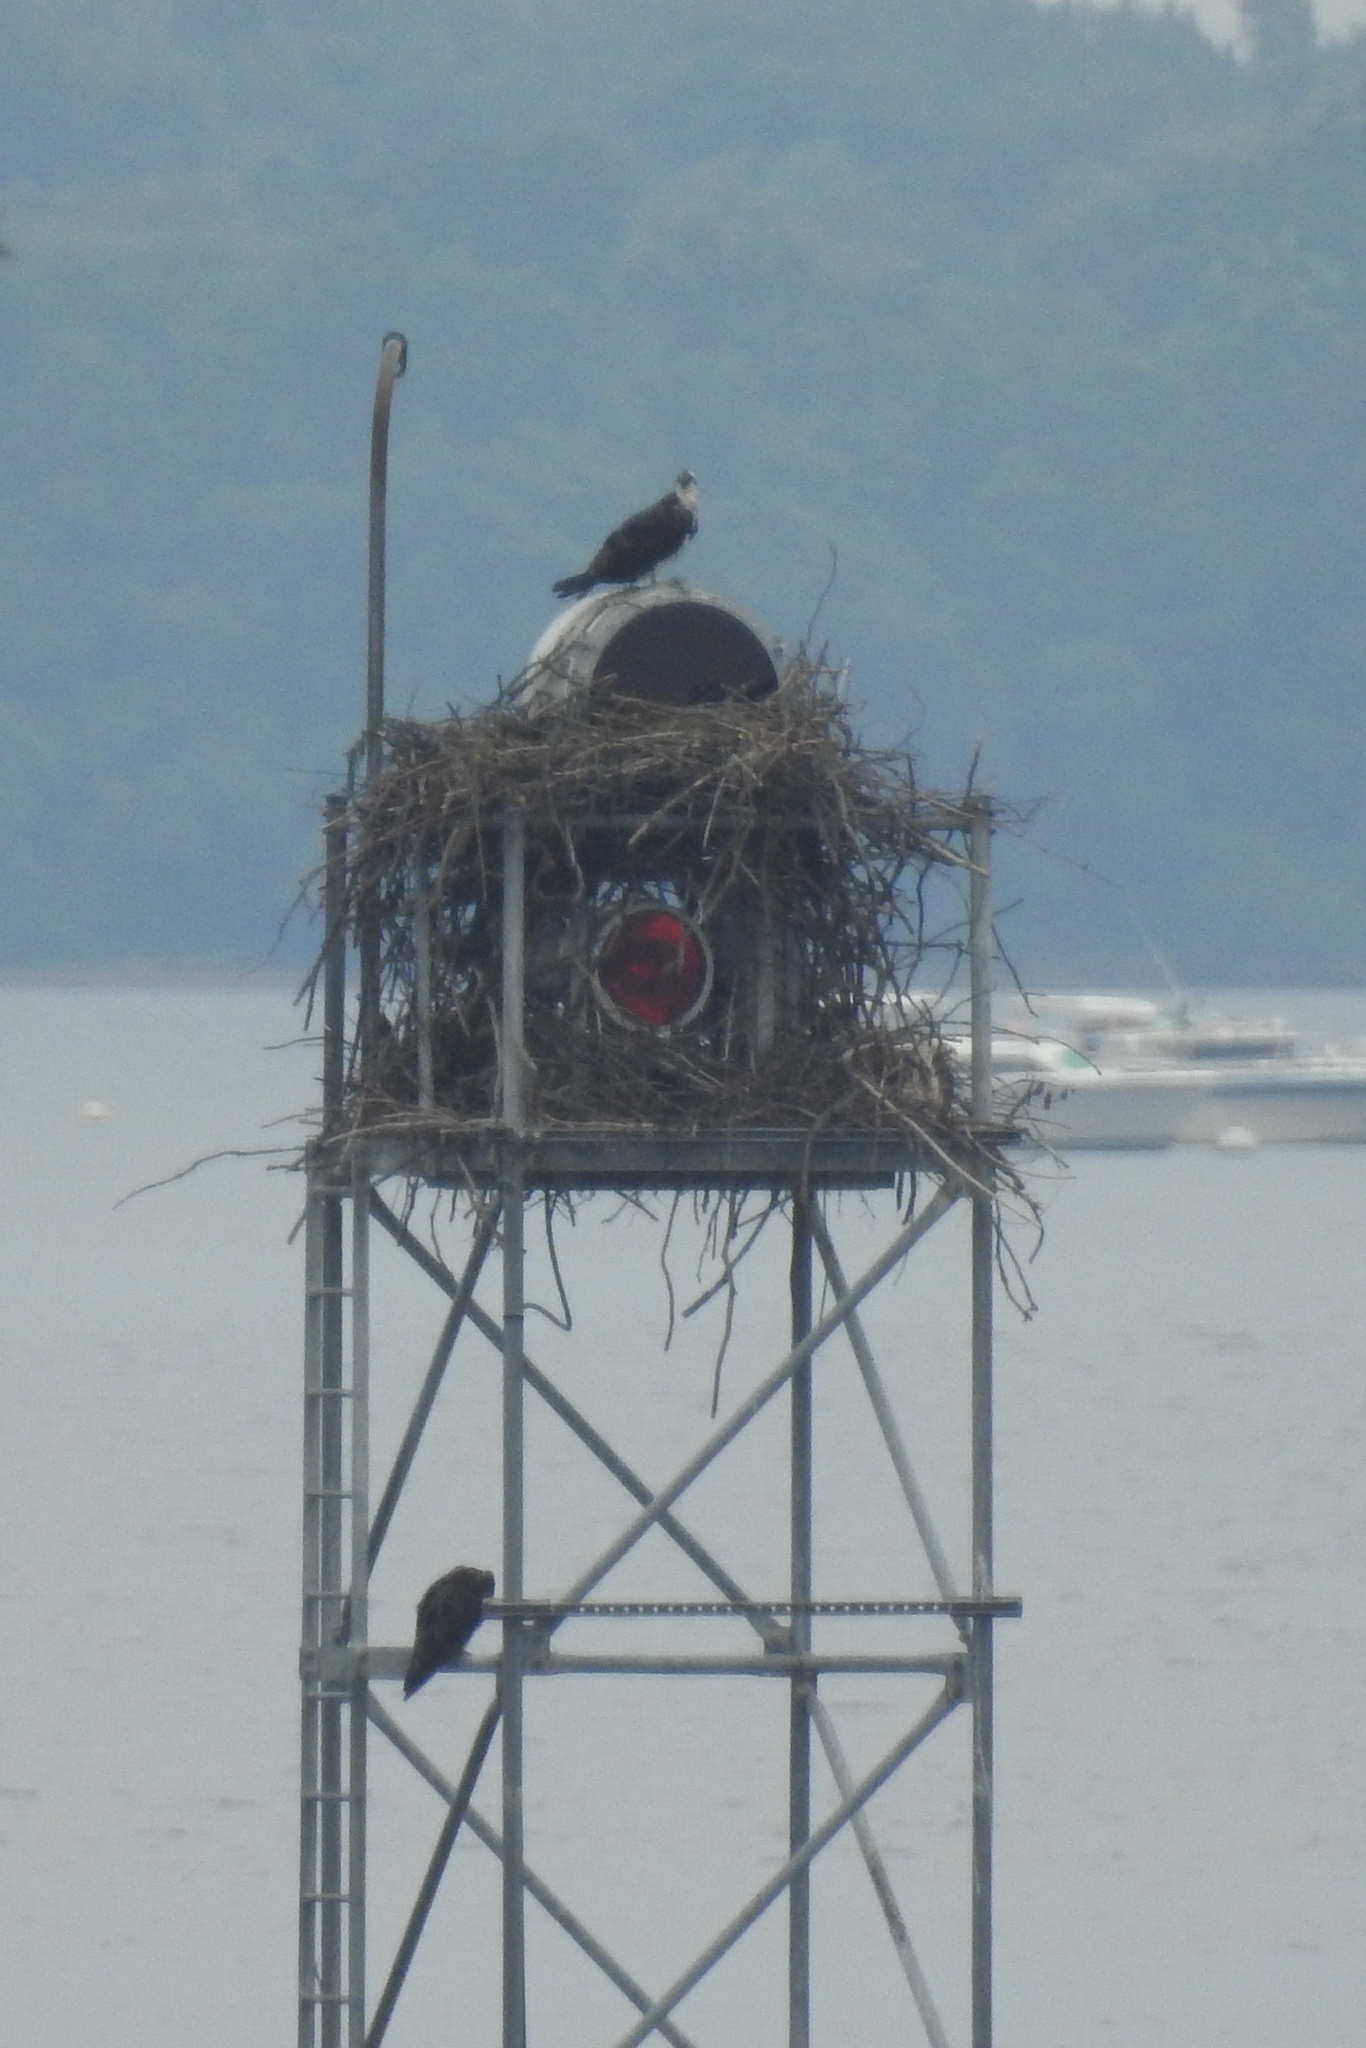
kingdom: Animalia
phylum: Chordata
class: Aves
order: Accipitriformes
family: Pandionidae
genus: Pandion
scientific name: Pandion haliaetus
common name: Osprey
